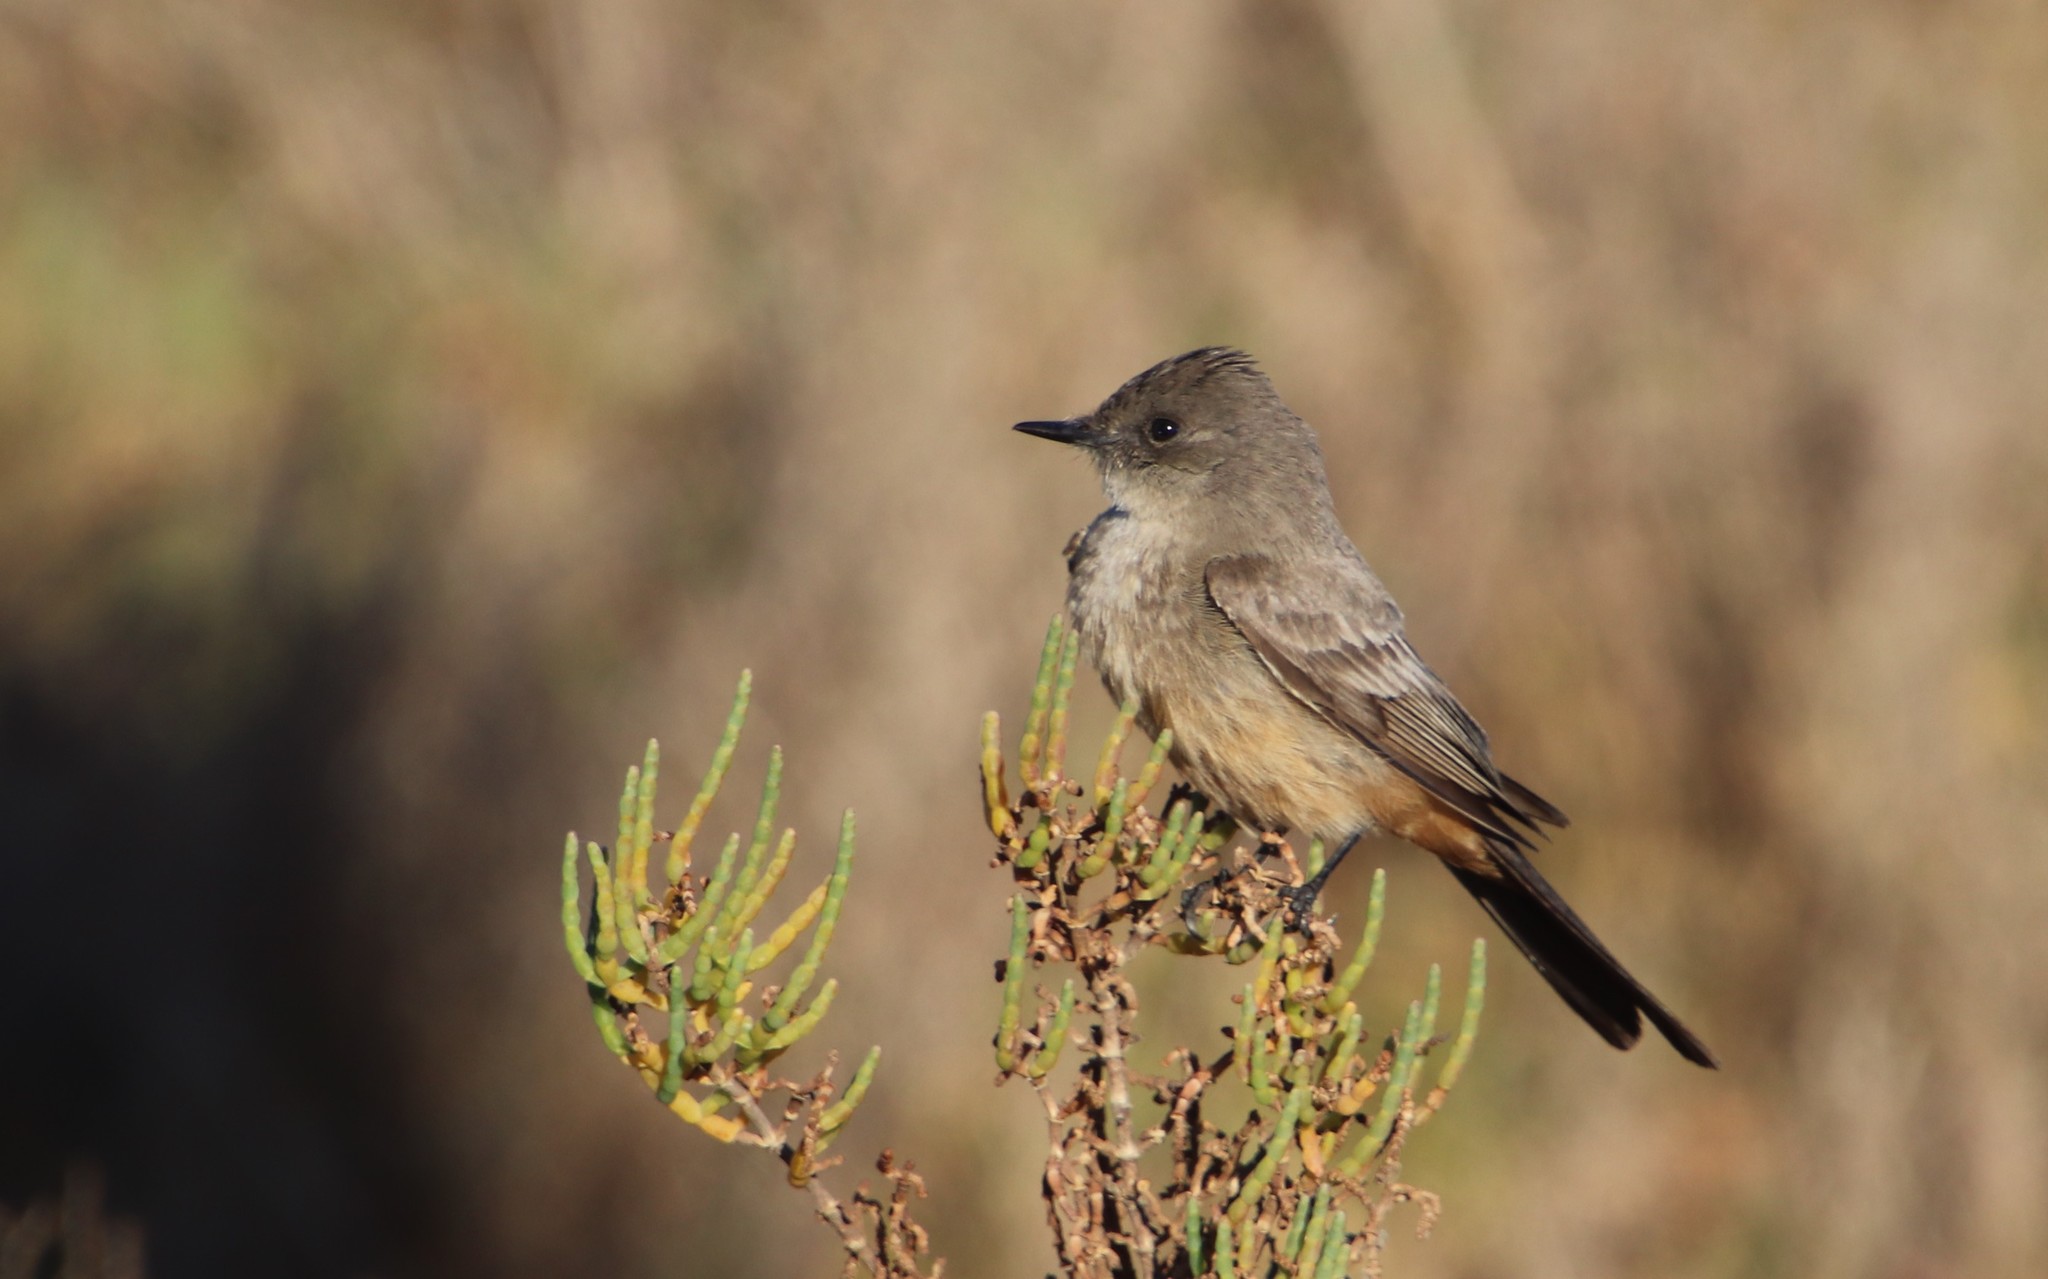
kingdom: Animalia
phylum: Chordata
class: Aves
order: Passeriformes
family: Tyrannidae
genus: Sayornis
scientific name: Sayornis saya
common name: Say's phoebe
